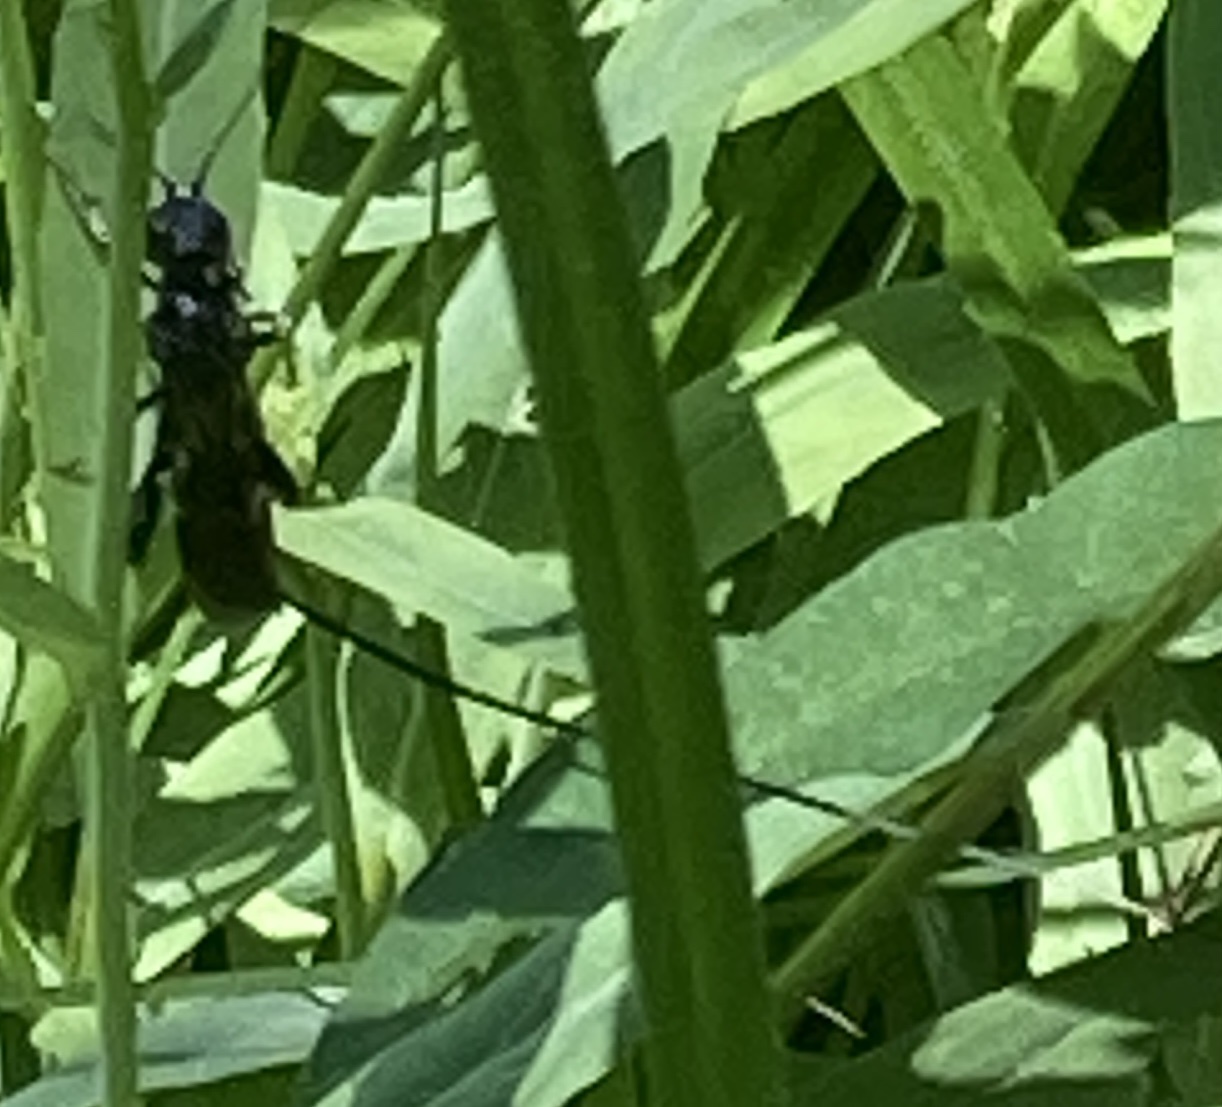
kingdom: Animalia
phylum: Arthropoda
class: Insecta
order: Hymenoptera
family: Stephanidae
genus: Schlettererius
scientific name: Schlettererius cinctipes
